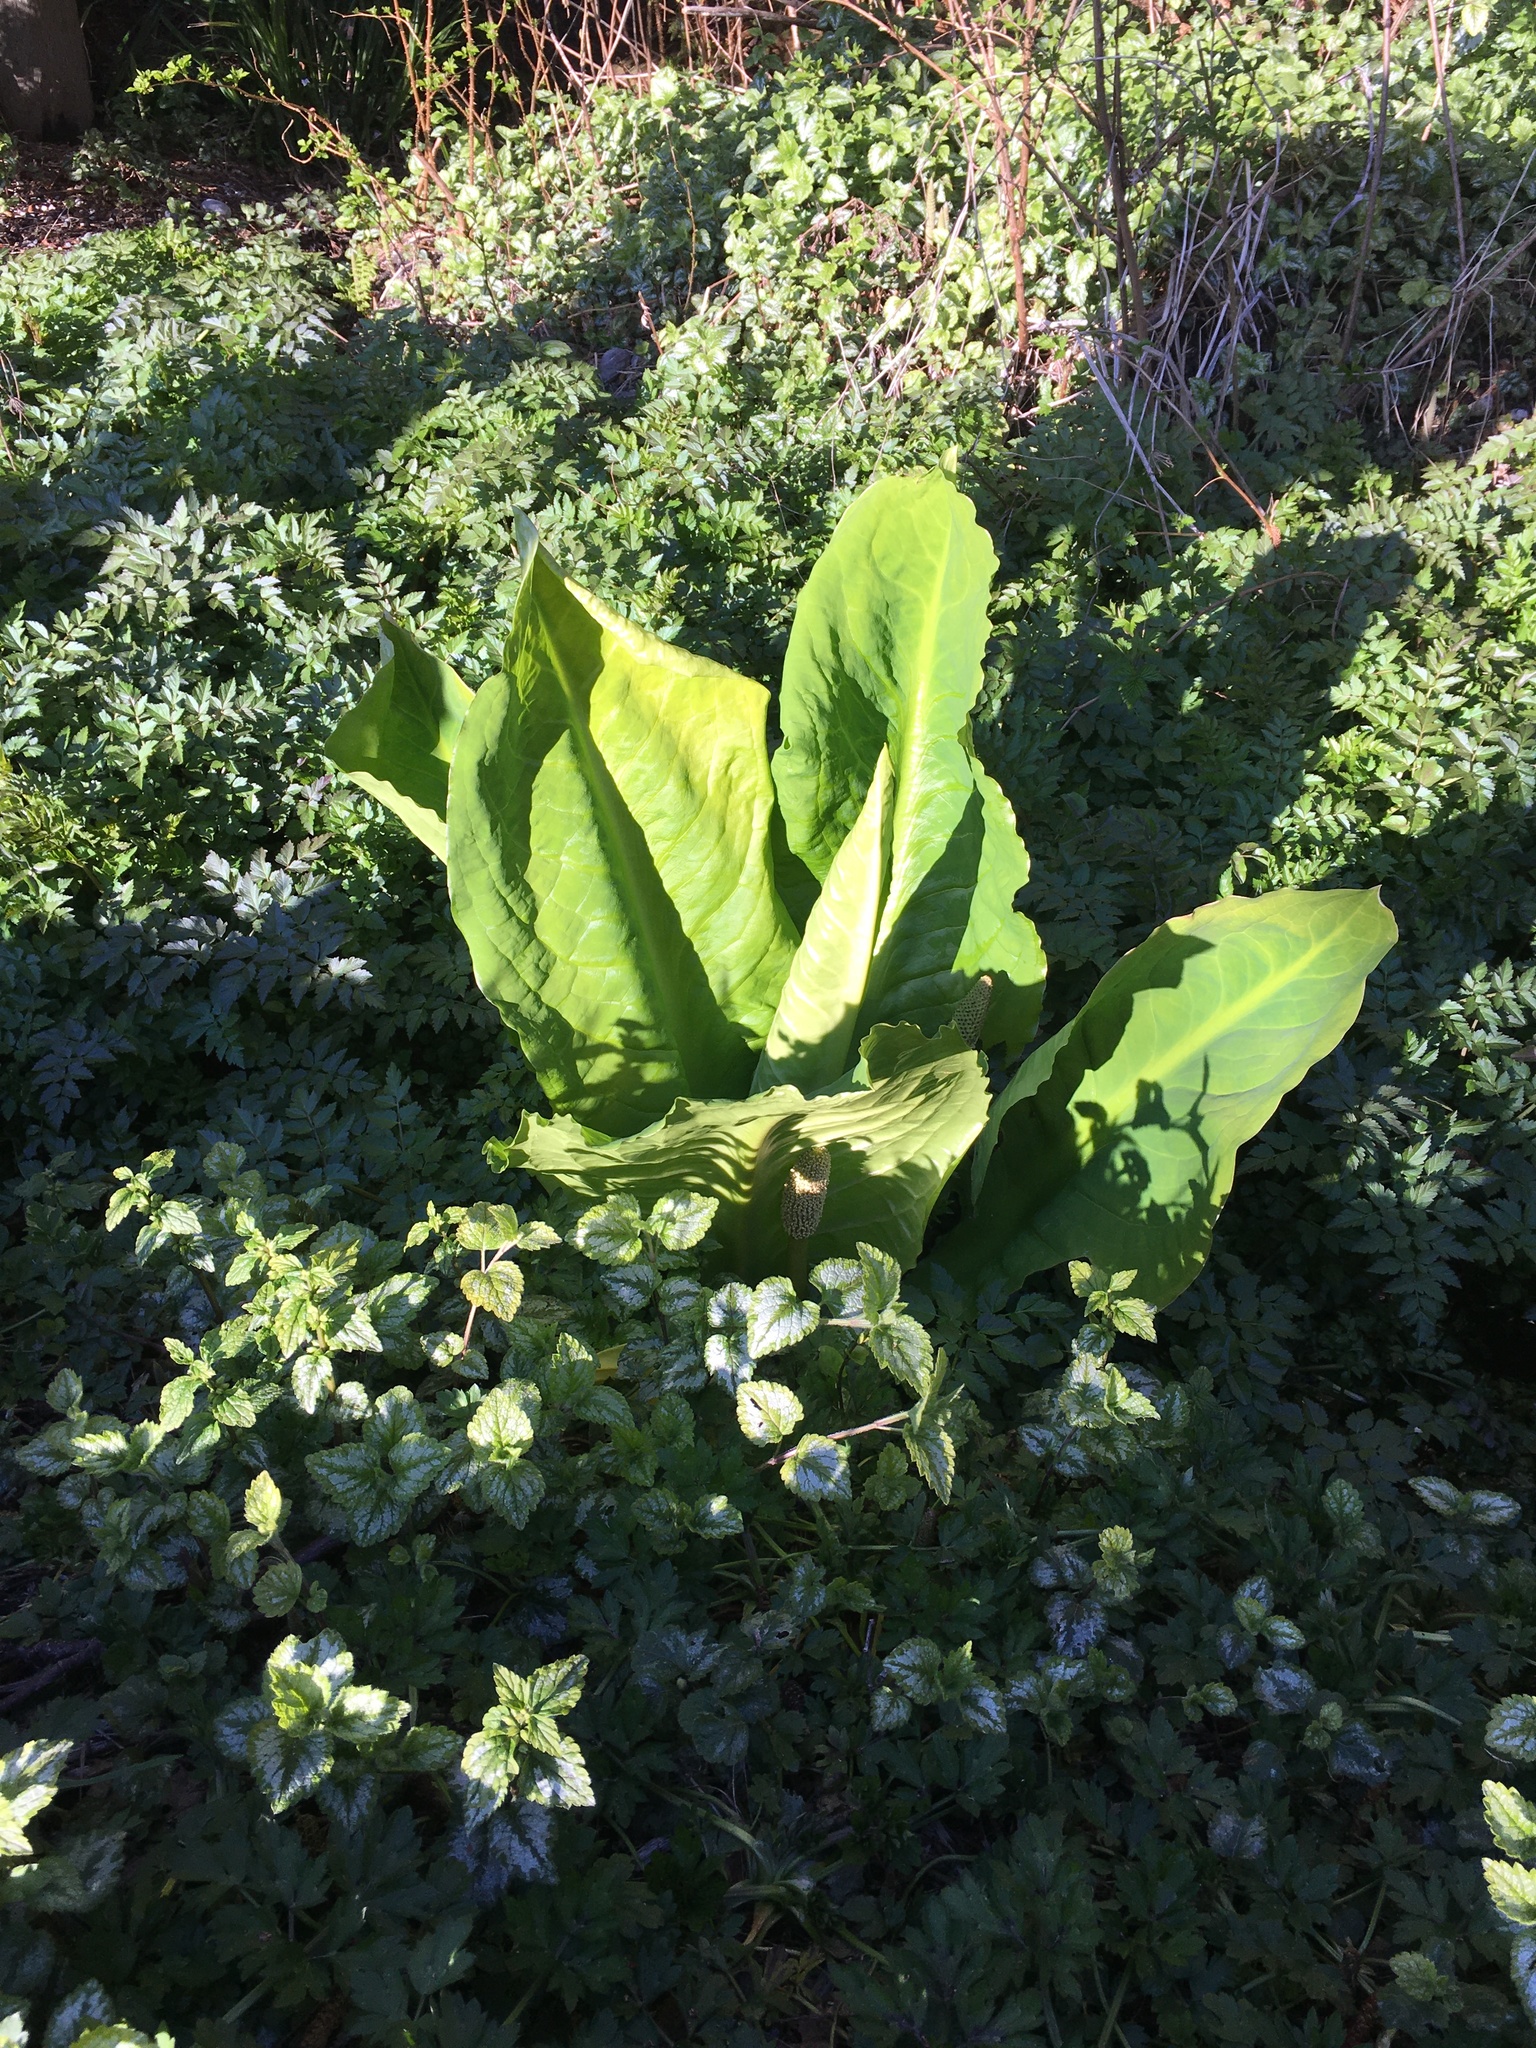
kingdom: Plantae
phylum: Tracheophyta
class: Liliopsida
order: Alismatales
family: Araceae
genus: Lysichiton
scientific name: Lysichiton americanus
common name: American skunk cabbage
